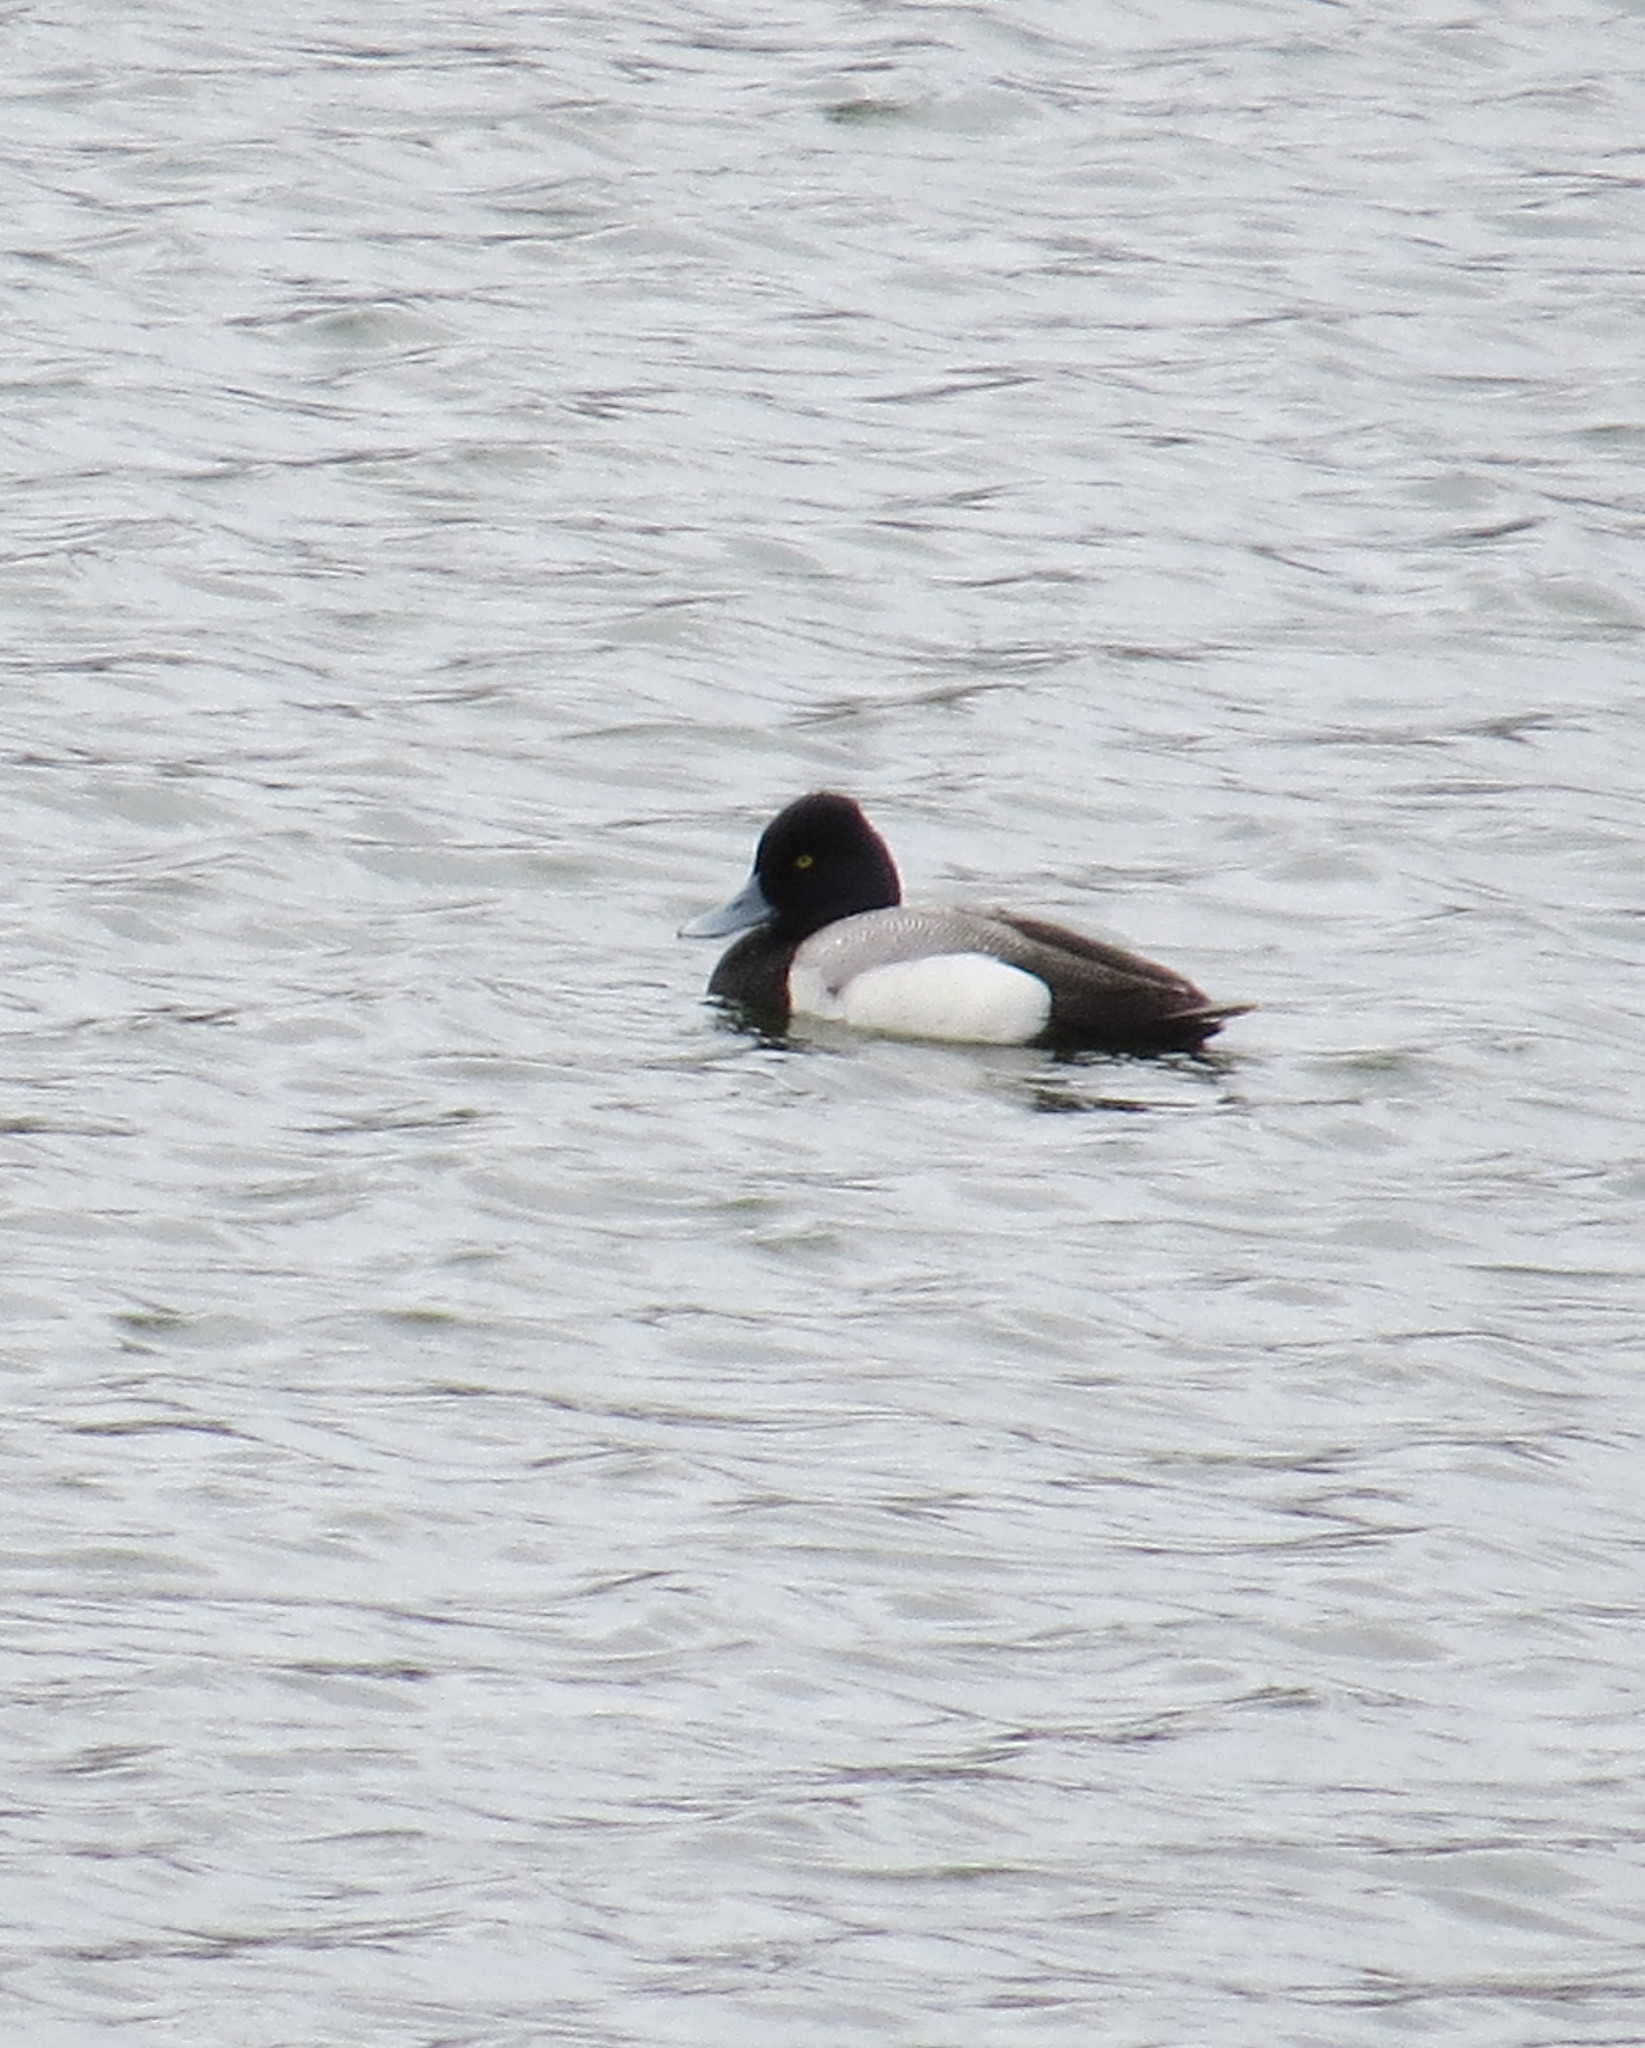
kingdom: Animalia
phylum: Chordata
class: Aves
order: Anseriformes
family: Anatidae
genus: Aythya
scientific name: Aythya affinis
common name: Lesser scaup
